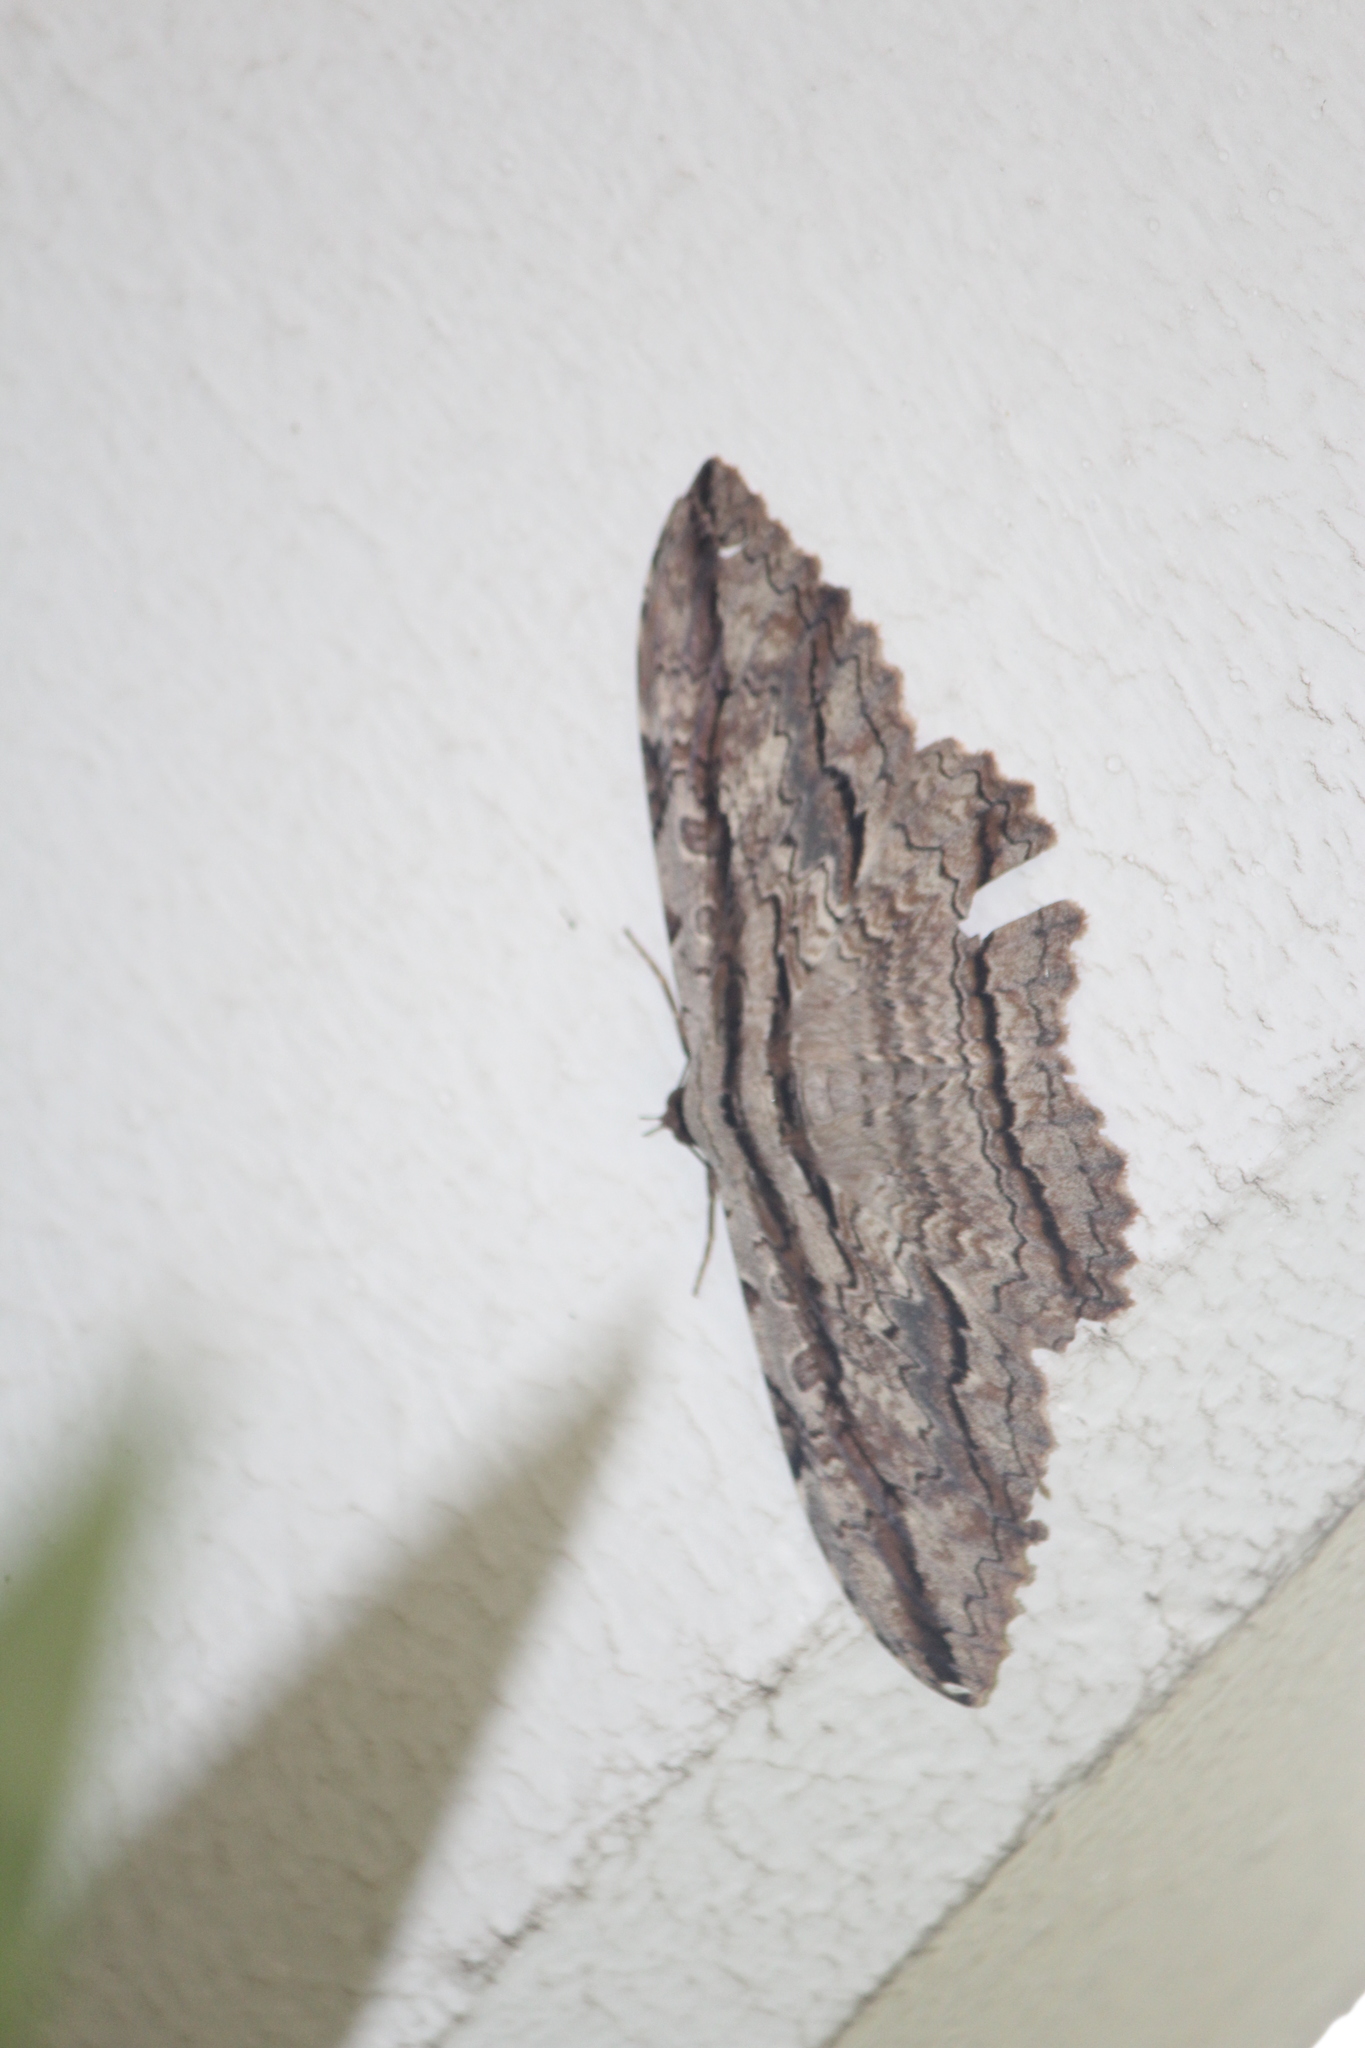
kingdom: Animalia
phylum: Arthropoda
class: Insecta
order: Lepidoptera
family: Erebidae
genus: Thysania
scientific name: Thysania zenobia
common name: Owl moth
